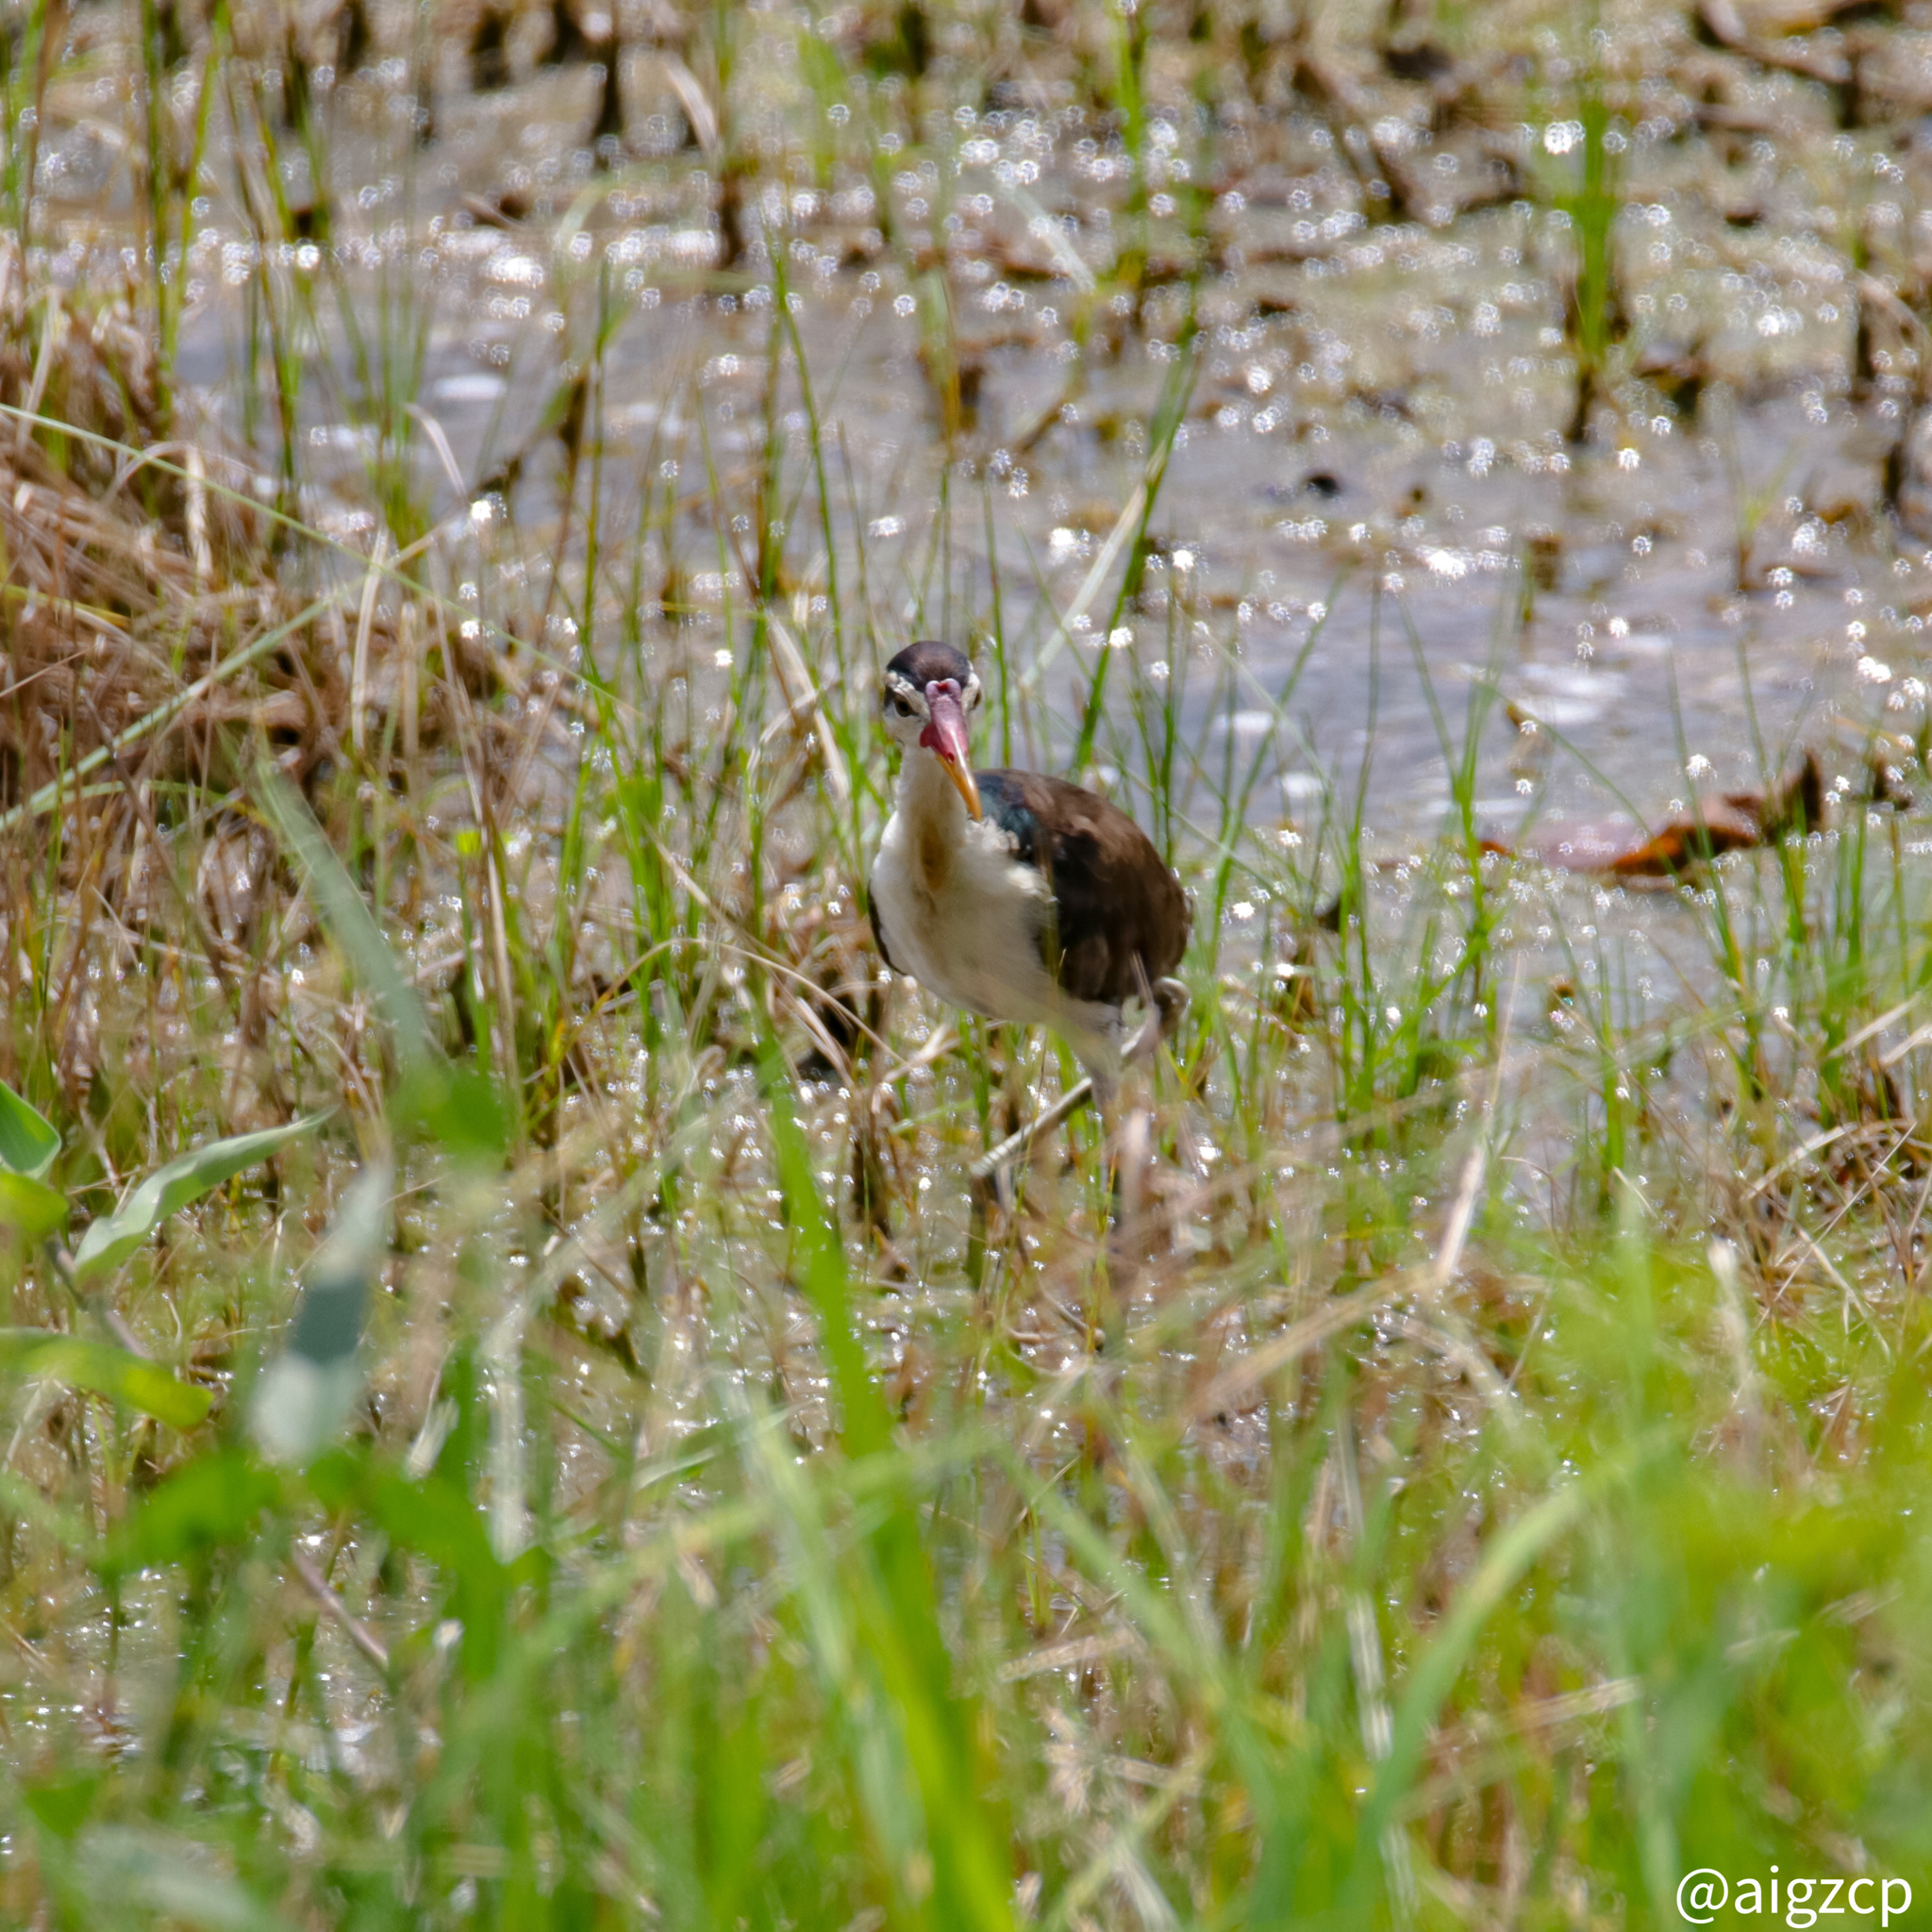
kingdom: Animalia
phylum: Chordata
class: Aves
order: Charadriiformes
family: Jacanidae
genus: Jacana
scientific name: Jacana jacana
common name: Wattled jacana
